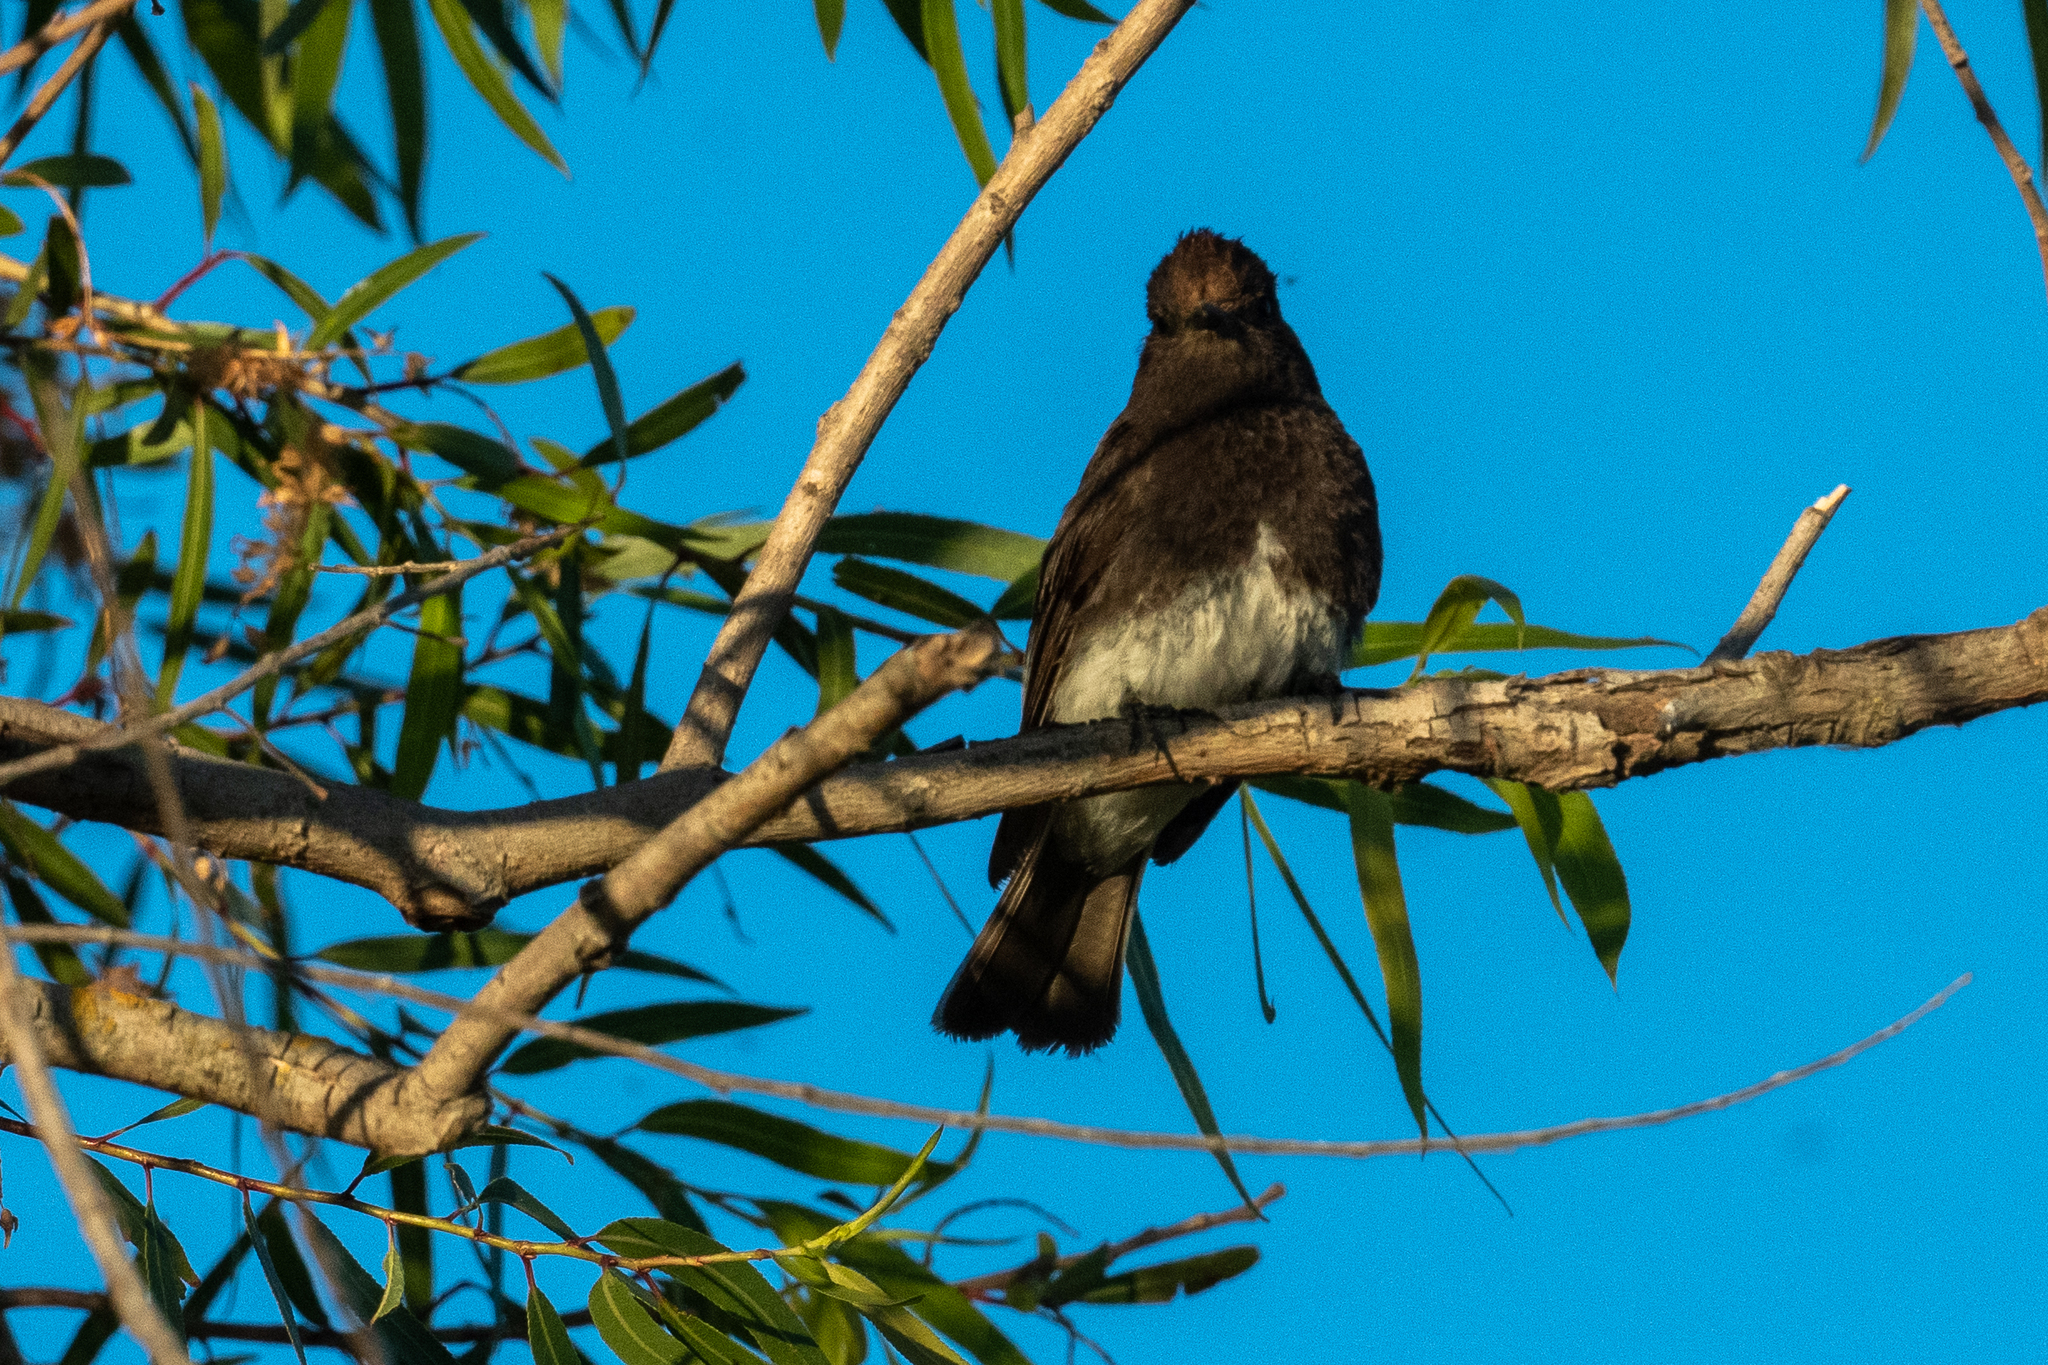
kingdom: Animalia
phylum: Chordata
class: Aves
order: Passeriformes
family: Tyrannidae
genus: Sayornis
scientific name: Sayornis nigricans
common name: Black phoebe
